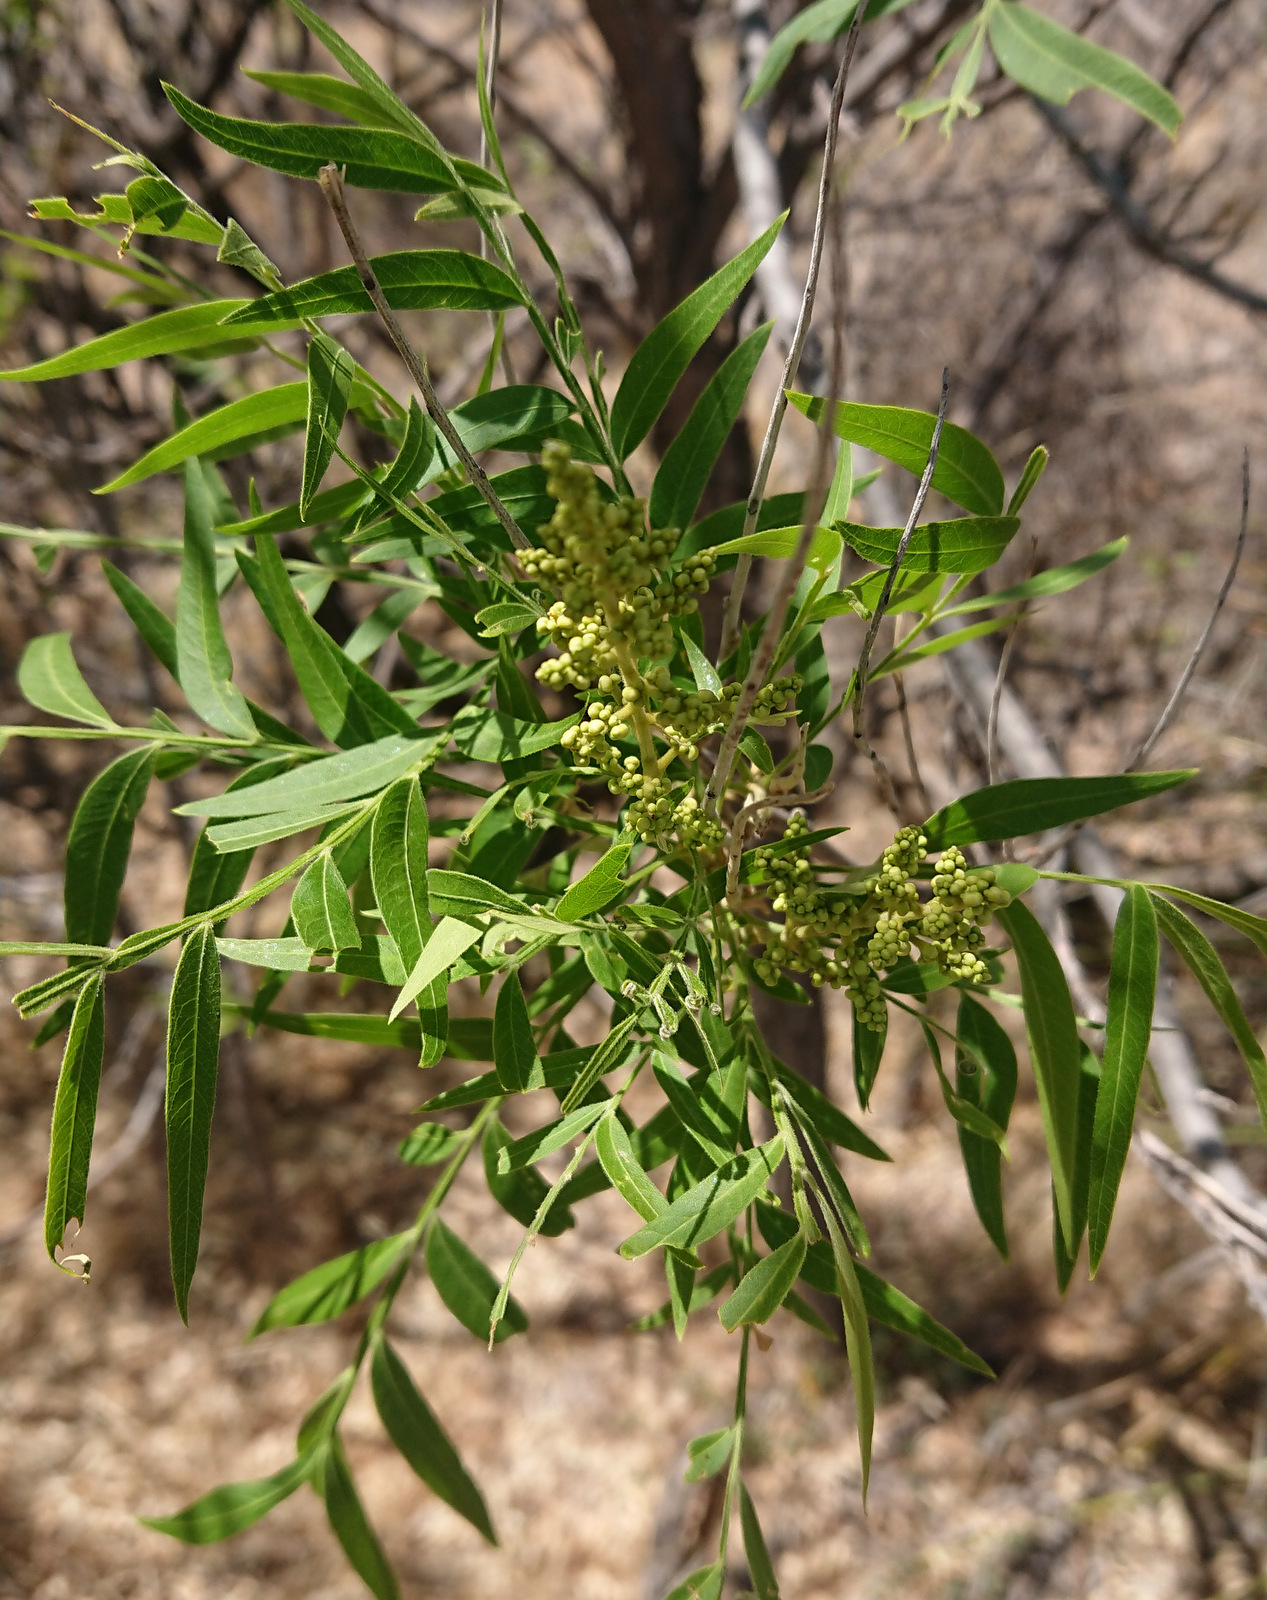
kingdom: Plantae
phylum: Tracheophyta
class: Magnoliopsida
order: Sapindales
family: Sapindaceae
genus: Sapindus
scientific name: Sapindus drummondii
